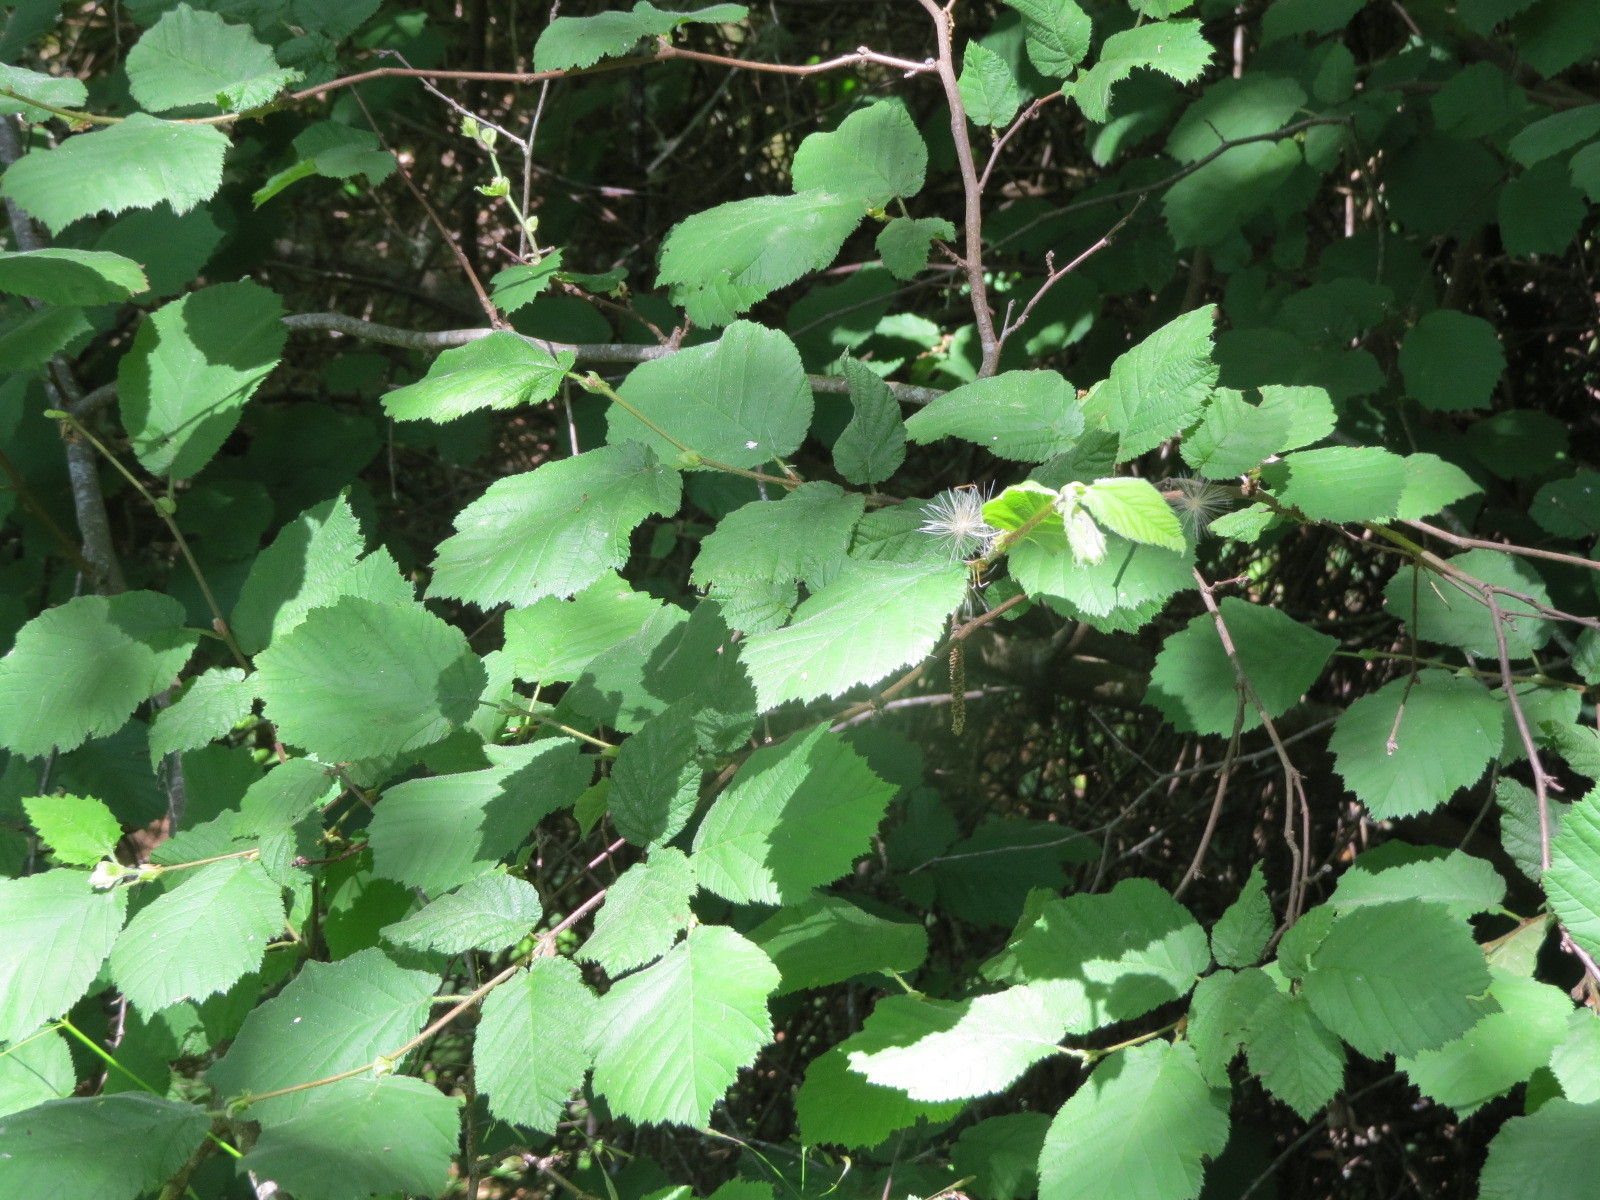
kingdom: Plantae
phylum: Tracheophyta
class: Magnoliopsida
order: Fagales
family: Betulaceae
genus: Corylus
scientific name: Corylus cornuta
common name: Beaked hazel
